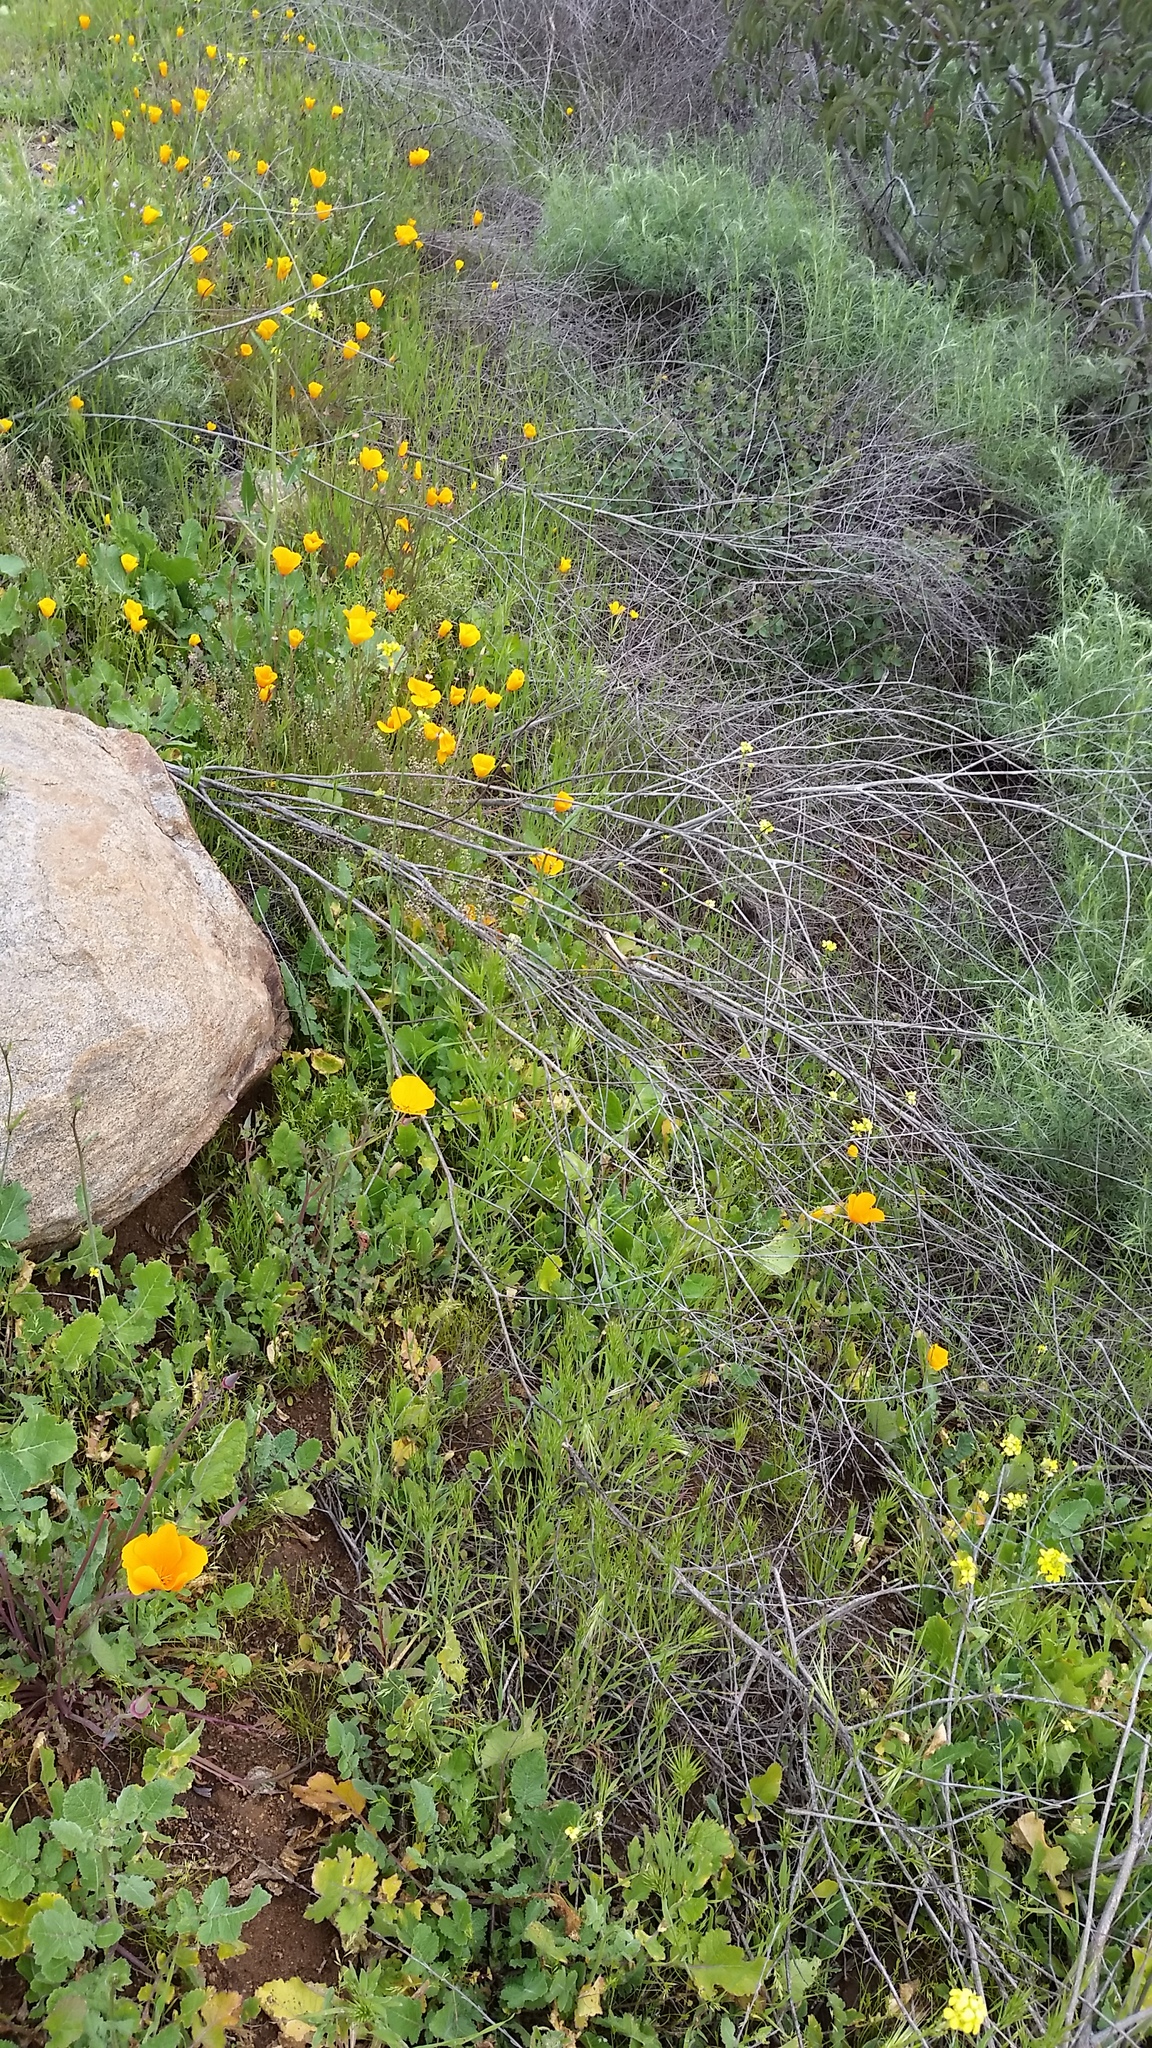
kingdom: Plantae
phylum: Tracheophyta
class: Magnoliopsida
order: Ranunculales
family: Papaveraceae
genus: Eschscholzia
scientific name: Eschscholzia californica
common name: California poppy
